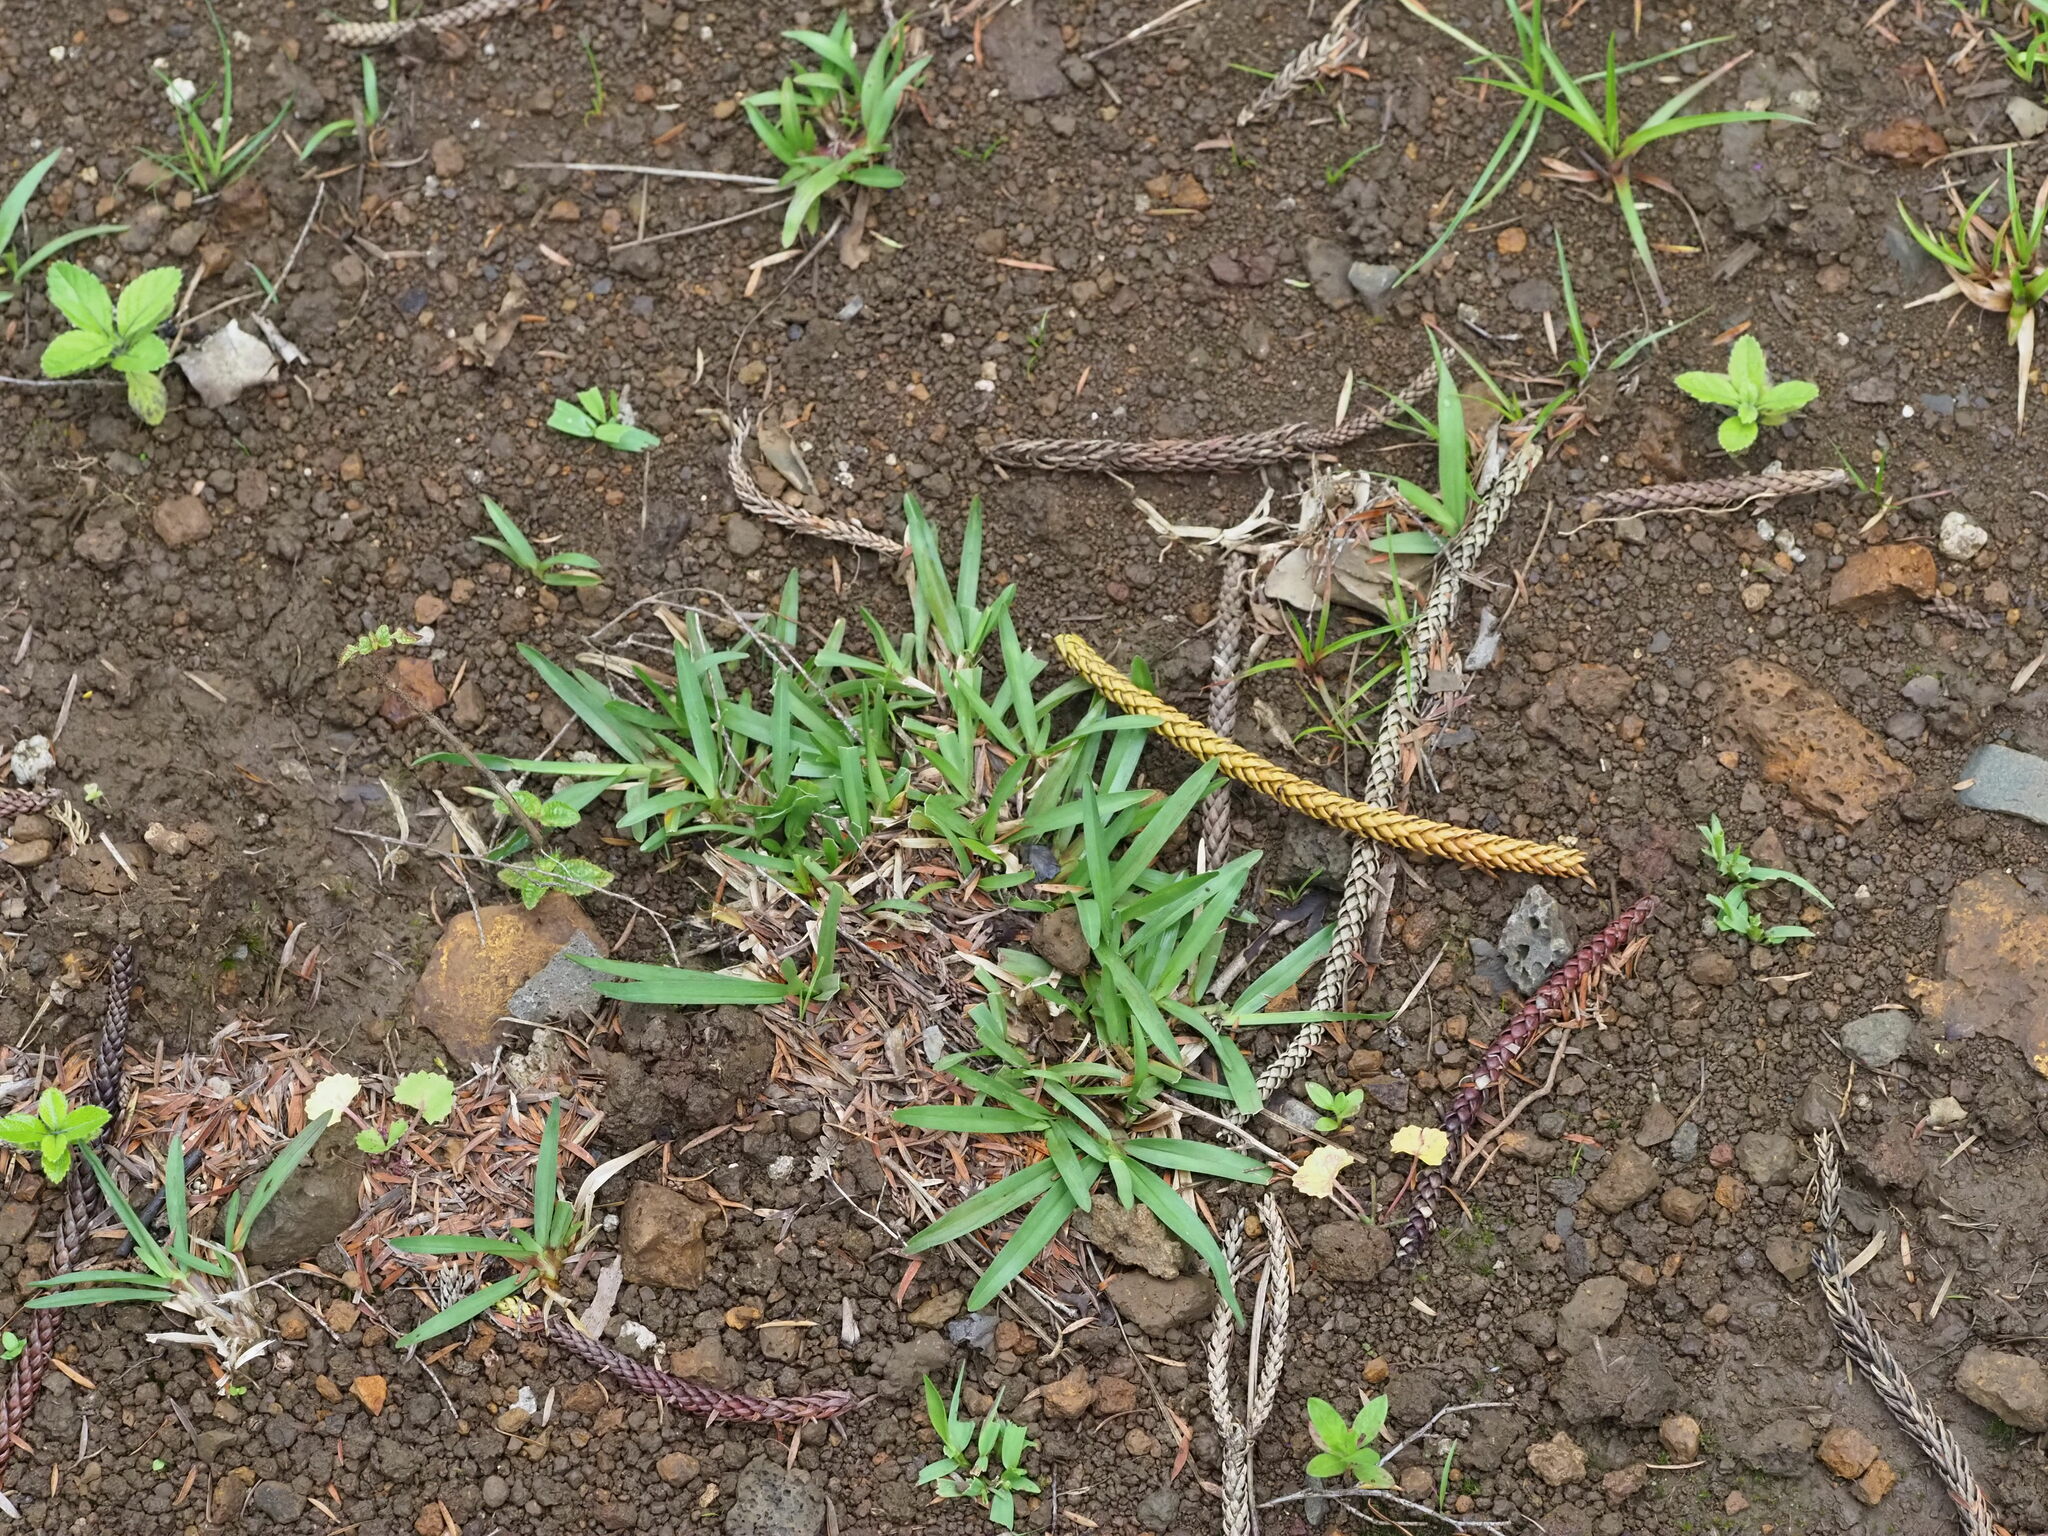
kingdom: Plantae
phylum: Tracheophyta
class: Liliopsida
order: Poales
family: Poaceae
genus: Axonopus
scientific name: Axonopus fissifolius
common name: Common carpetgrass
